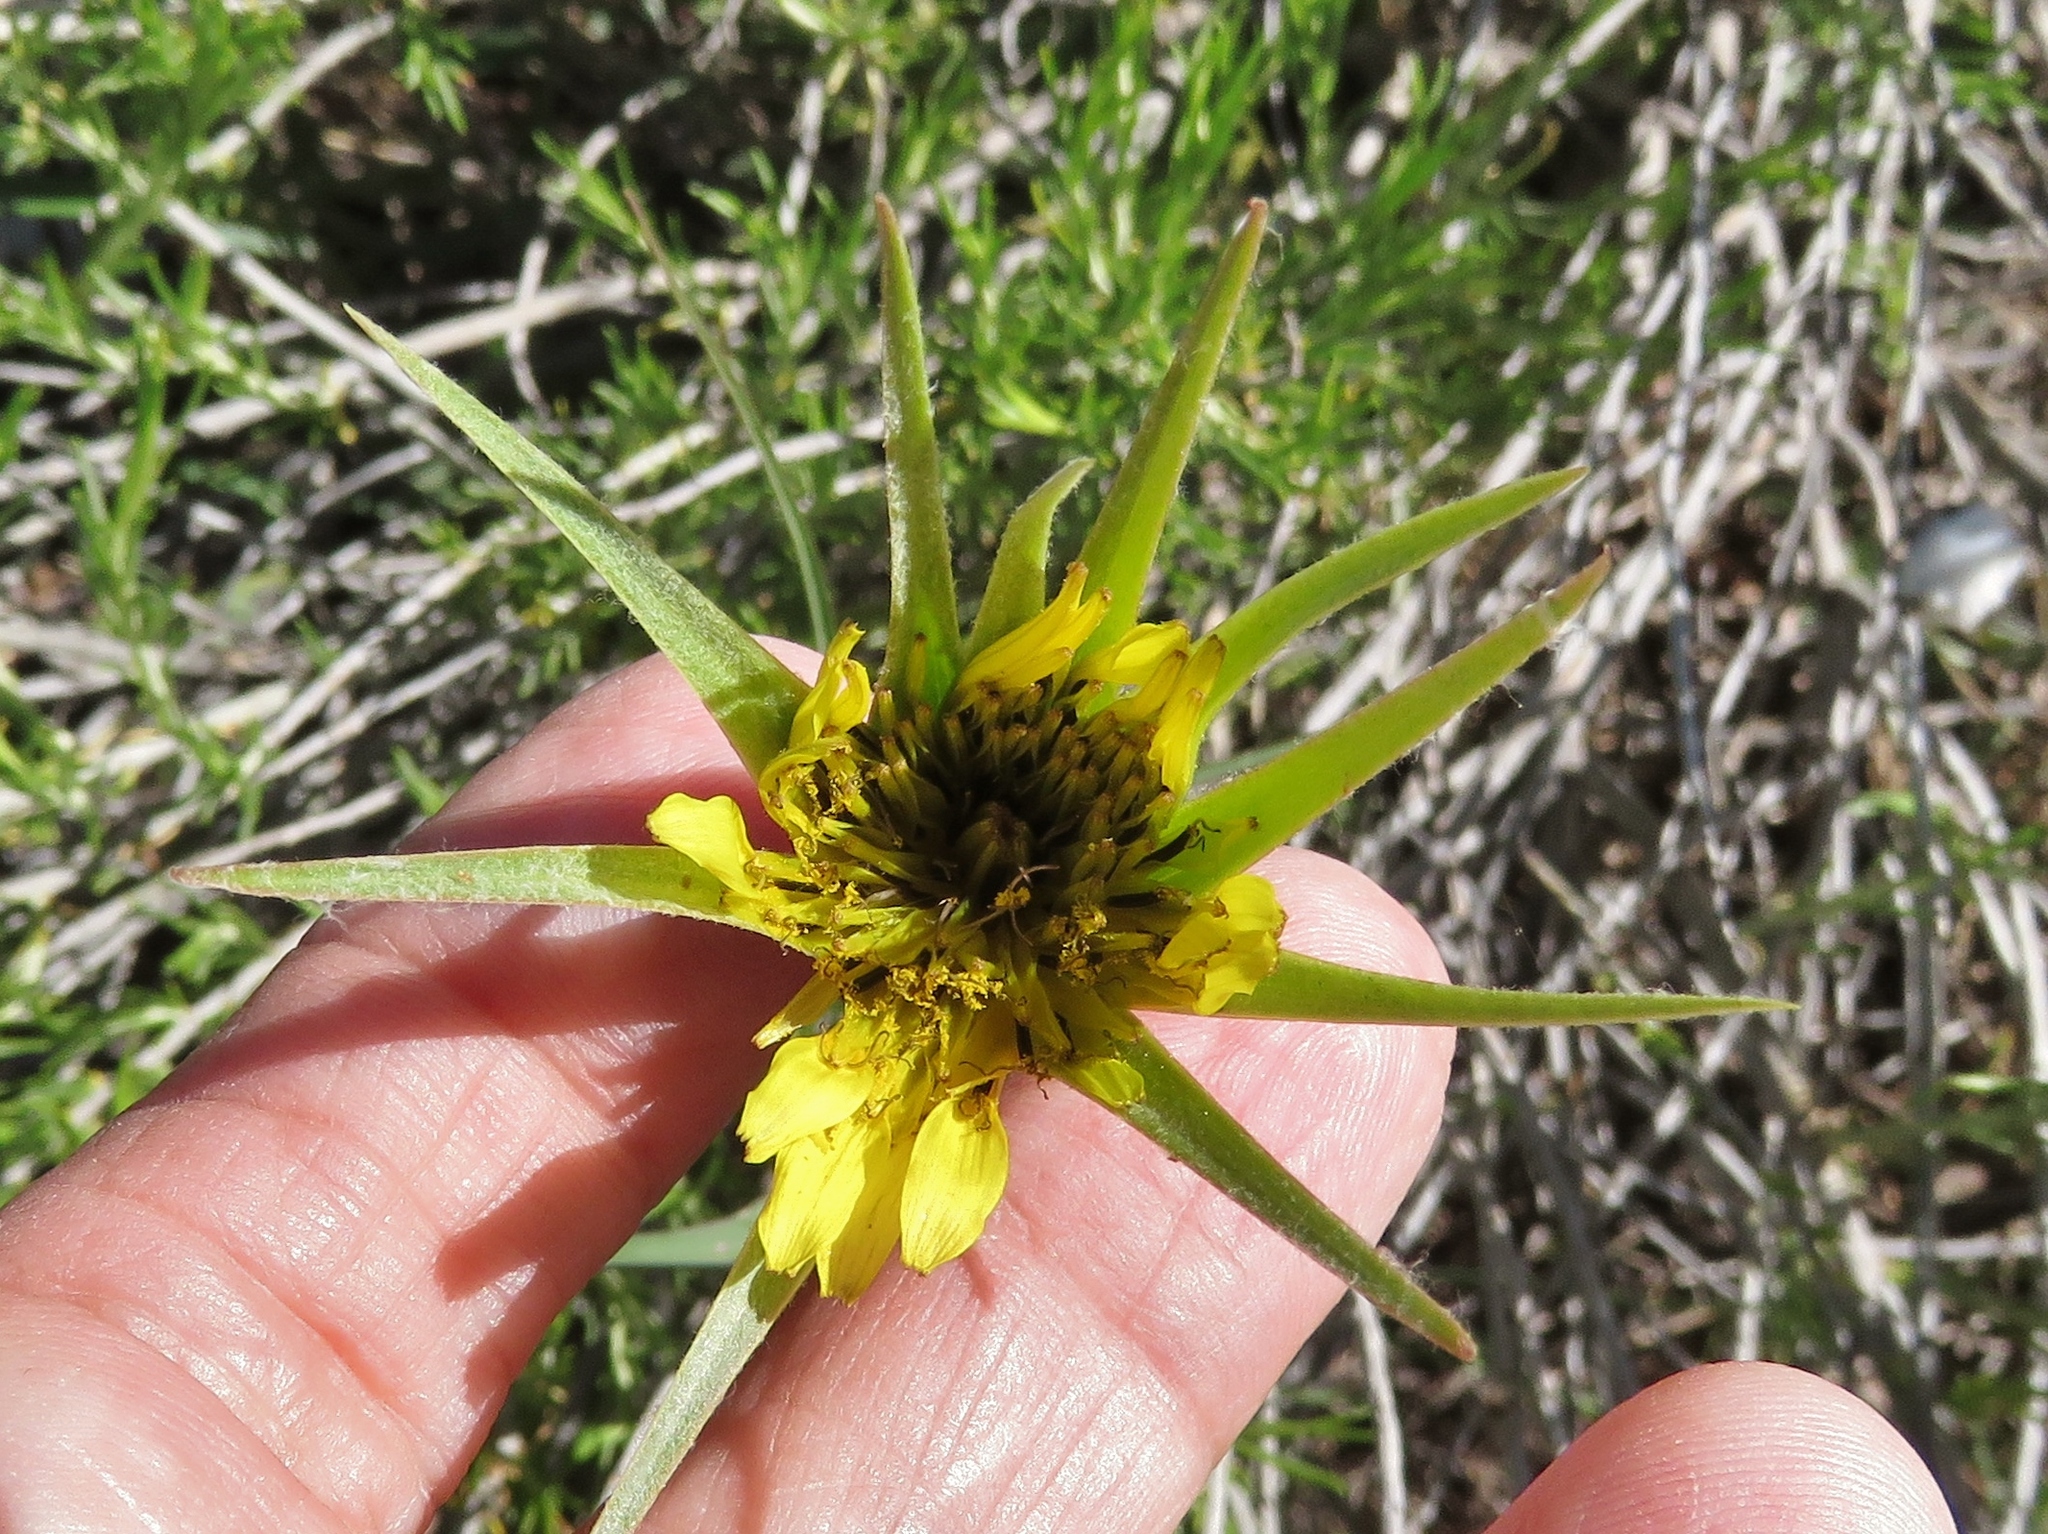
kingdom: Plantae
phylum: Tracheophyta
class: Magnoliopsida
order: Asterales
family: Asteraceae
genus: Tragopogon
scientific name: Tragopogon dubius
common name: Yellow salsify
